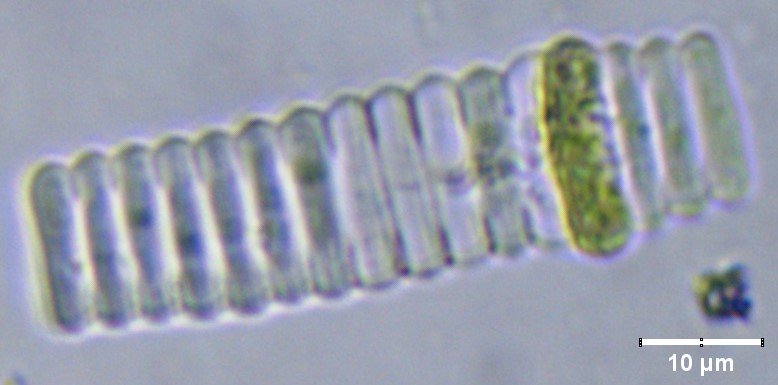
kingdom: Plantae
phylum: Chlorophyta
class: Chlorophyceae
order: Sphaeropleales
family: Scenedesmaceae
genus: Scenedesmus
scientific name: Scenedesmus ellipticus
